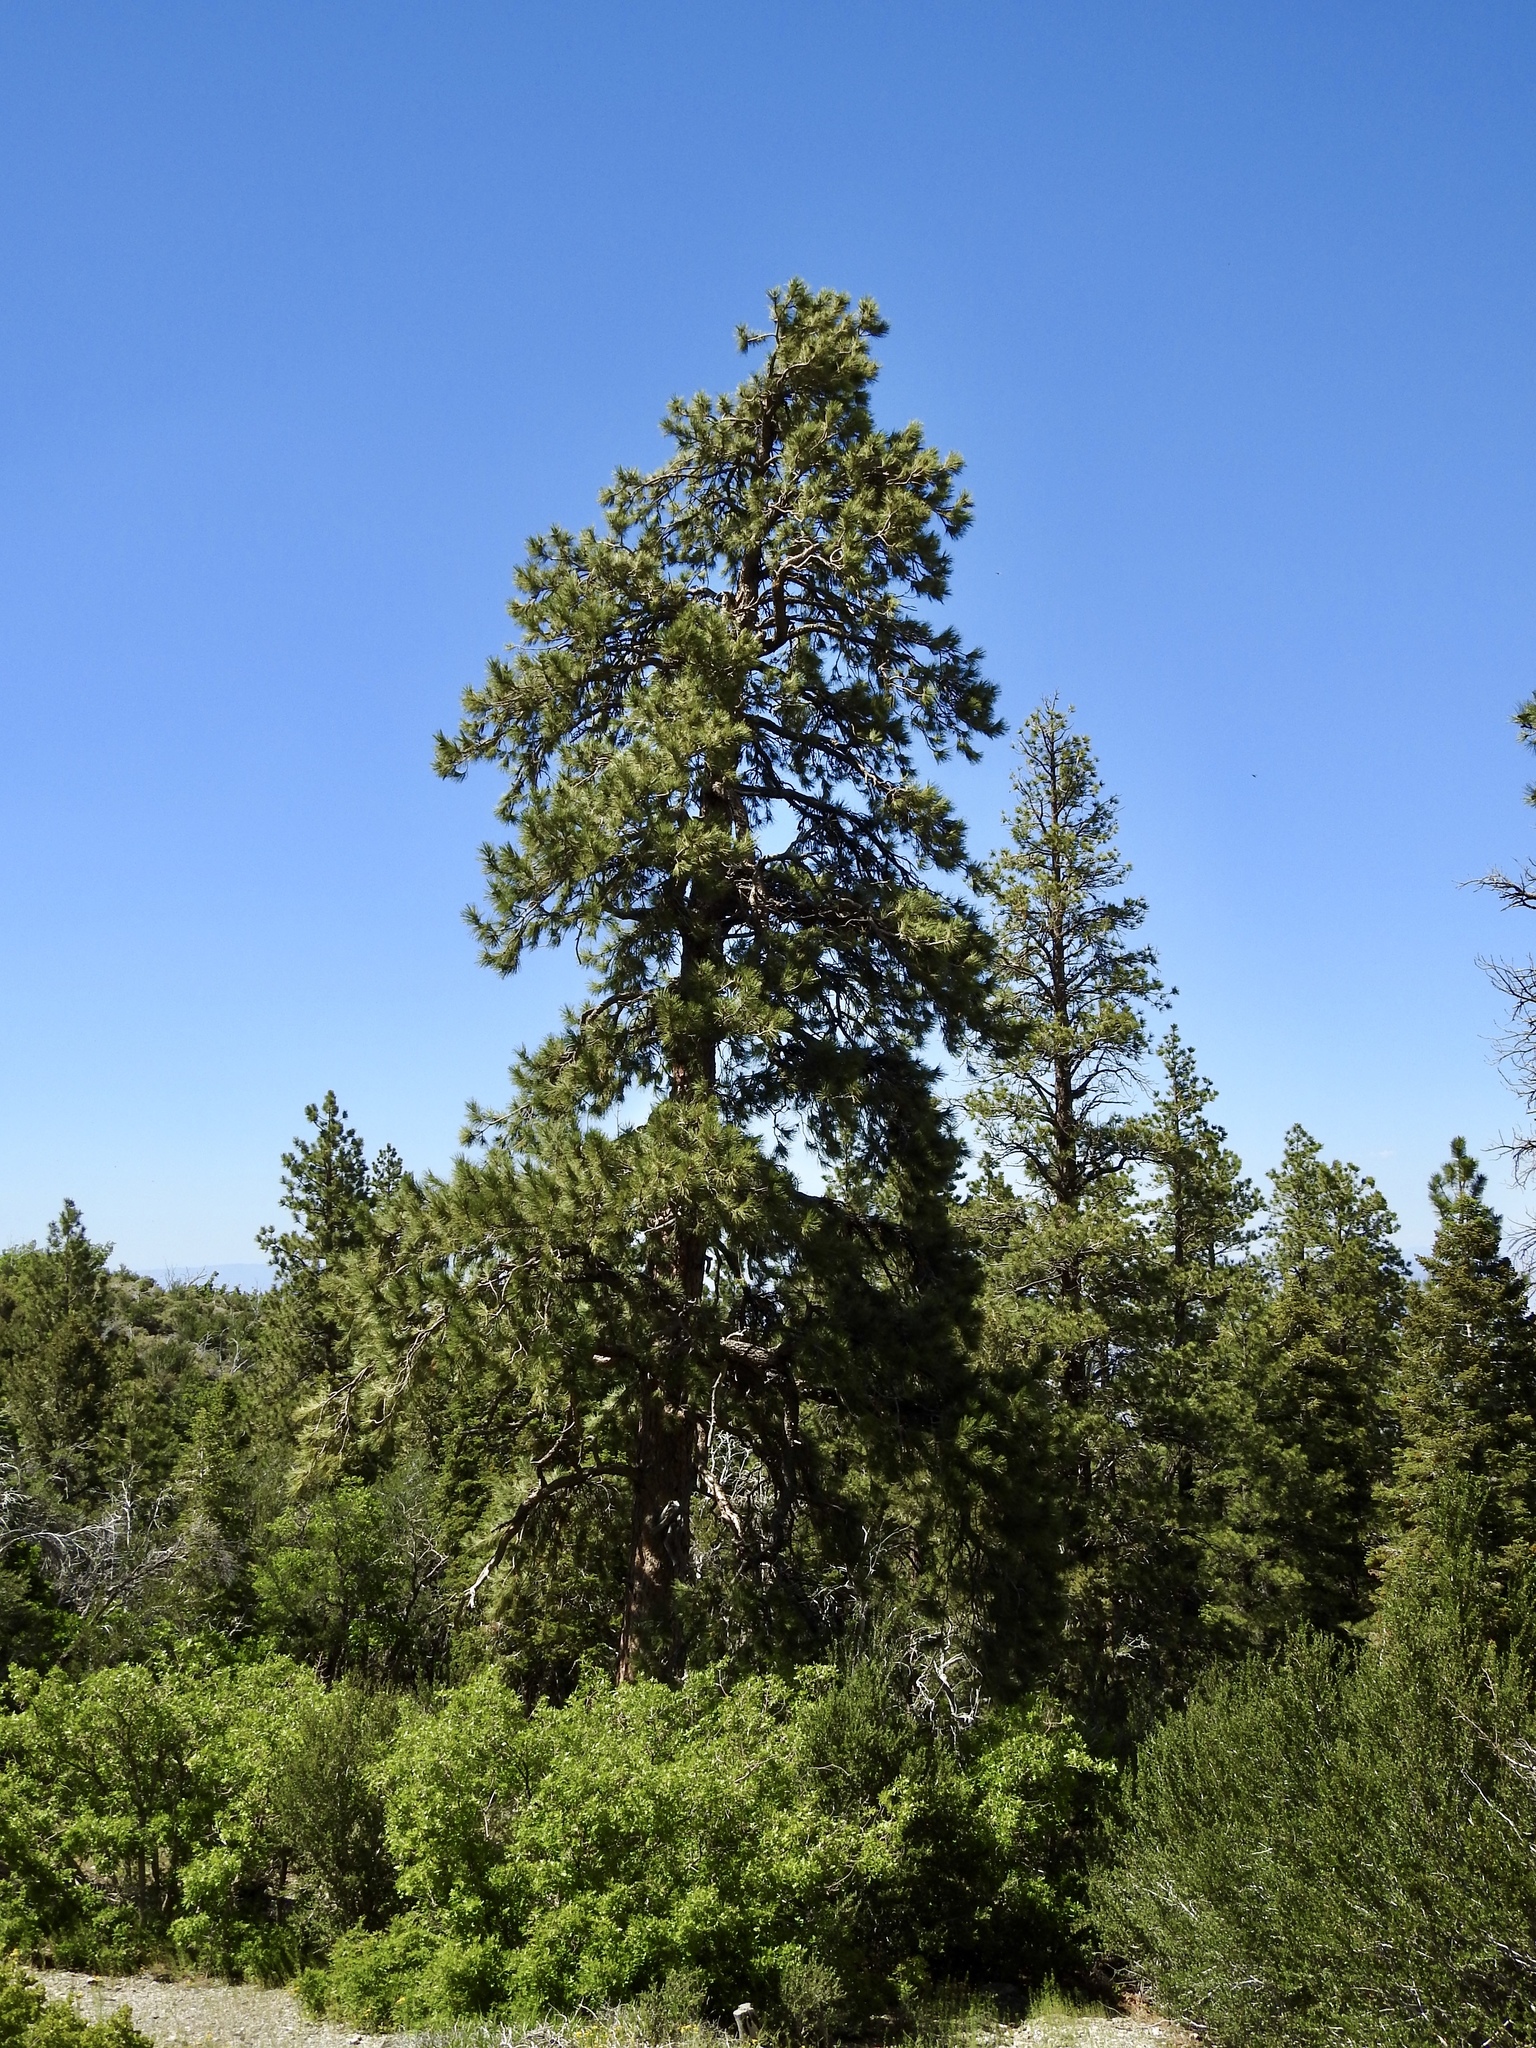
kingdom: Plantae
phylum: Tracheophyta
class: Pinopsida
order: Pinales
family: Pinaceae
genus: Pinus
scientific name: Pinus ponderosa
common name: Western yellow-pine
